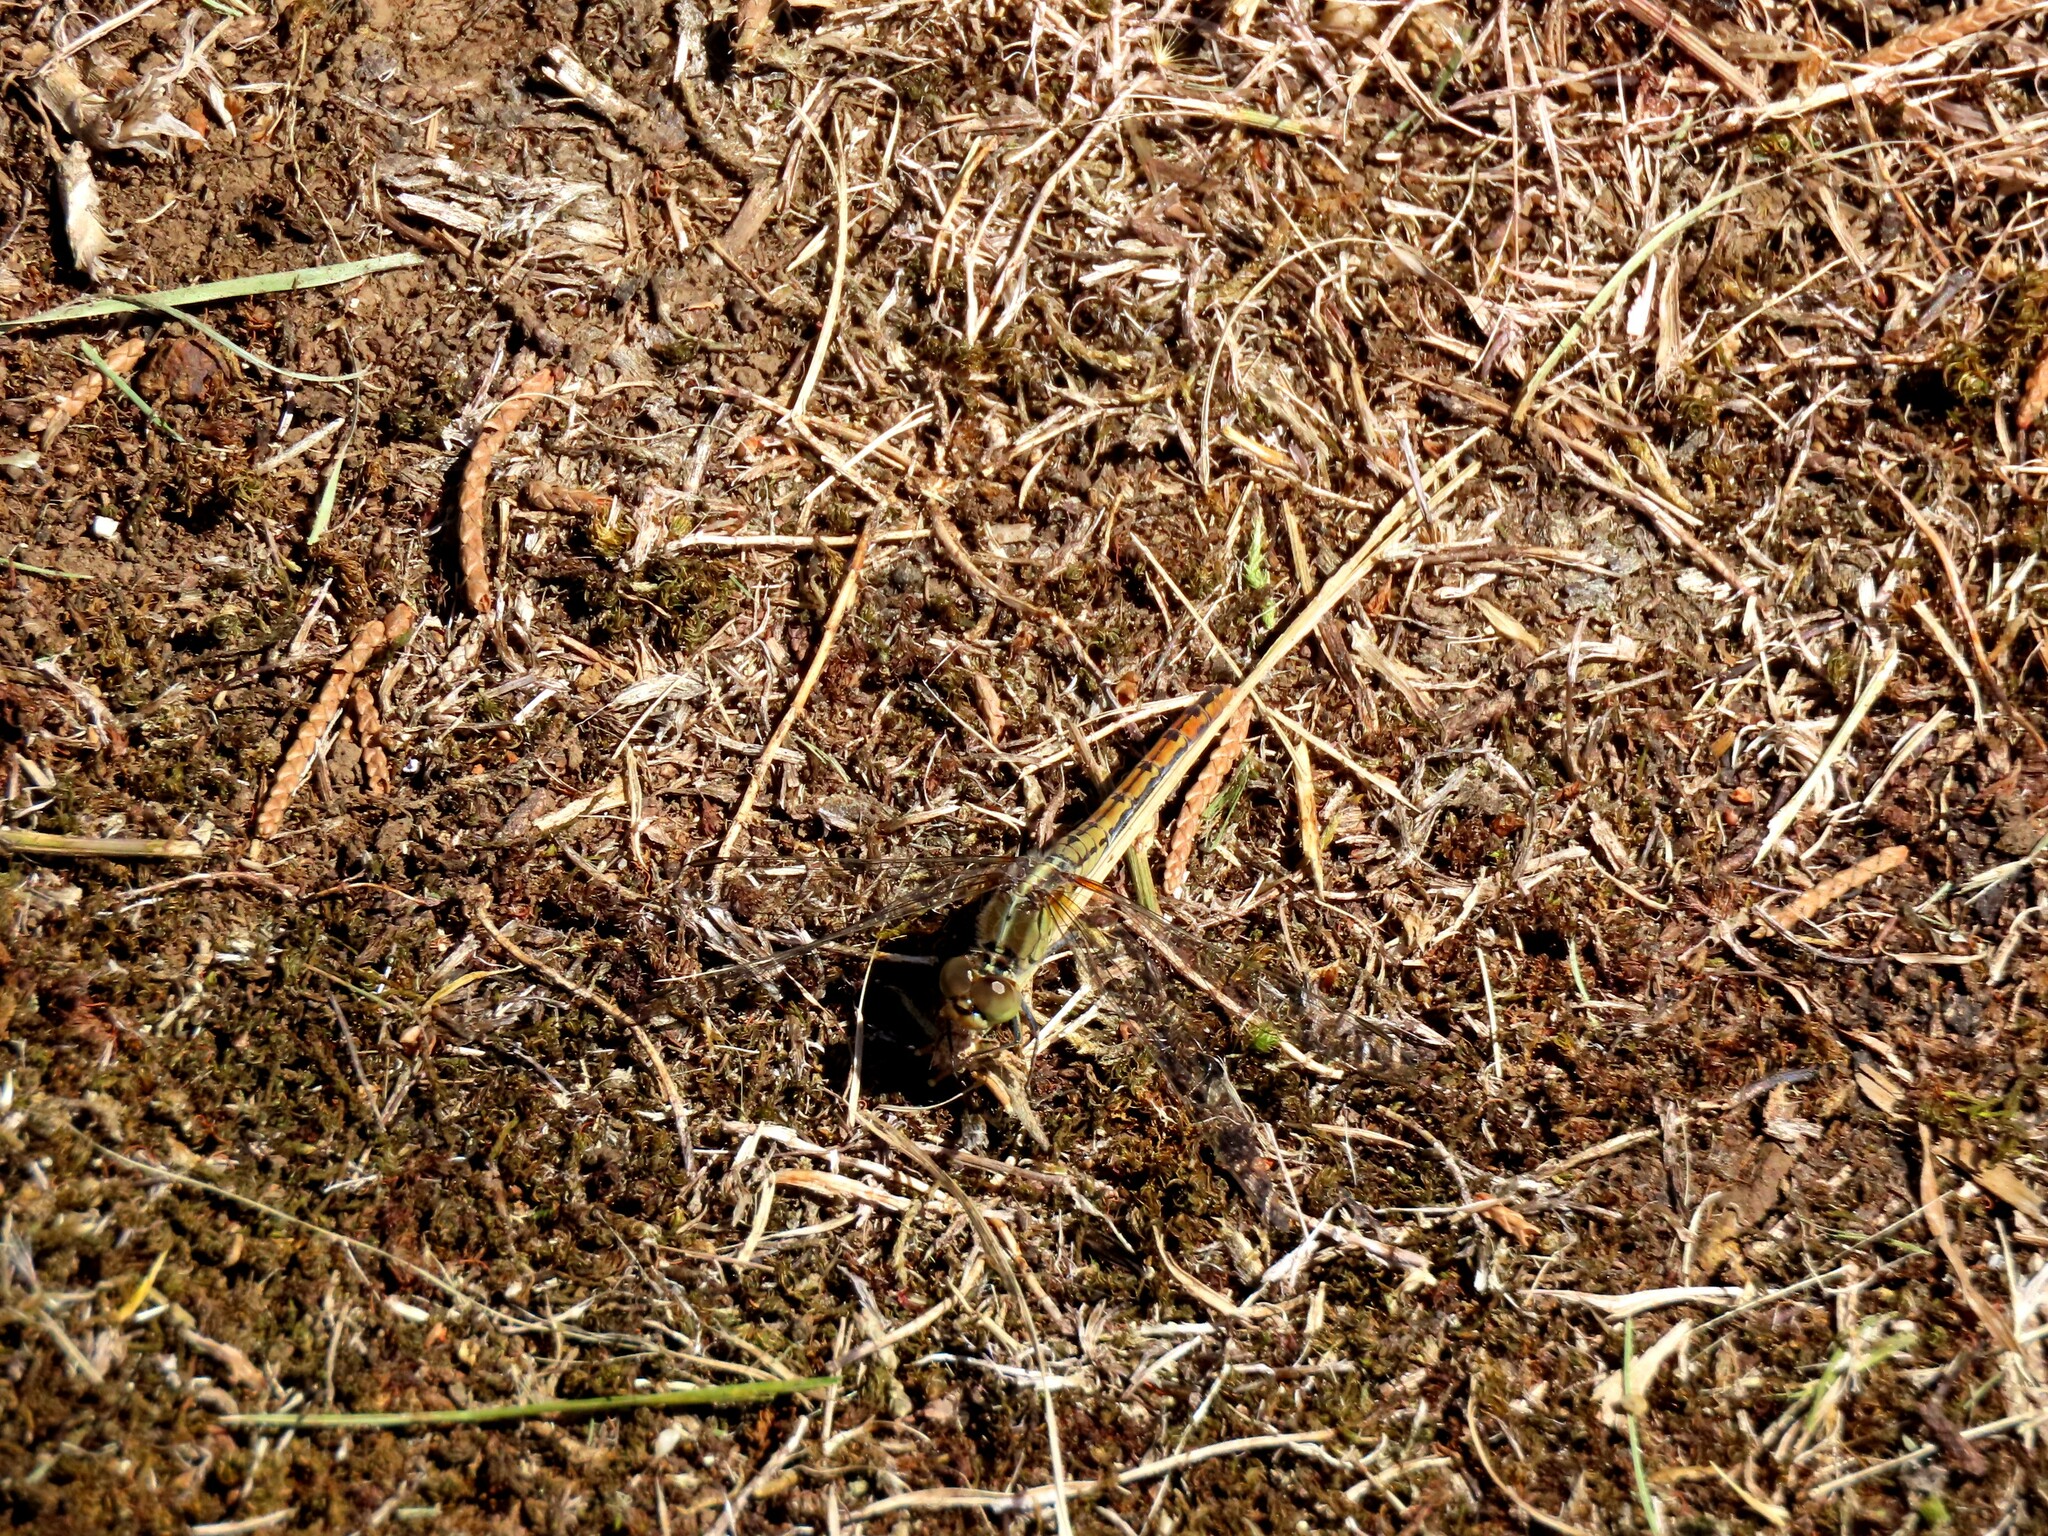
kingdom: Animalia
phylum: Arthropoda
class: Insecta
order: Odonata
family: Libellulidae
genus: Diplacodes
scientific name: Diplacodes bipunctata
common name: Red percher dragonfly
